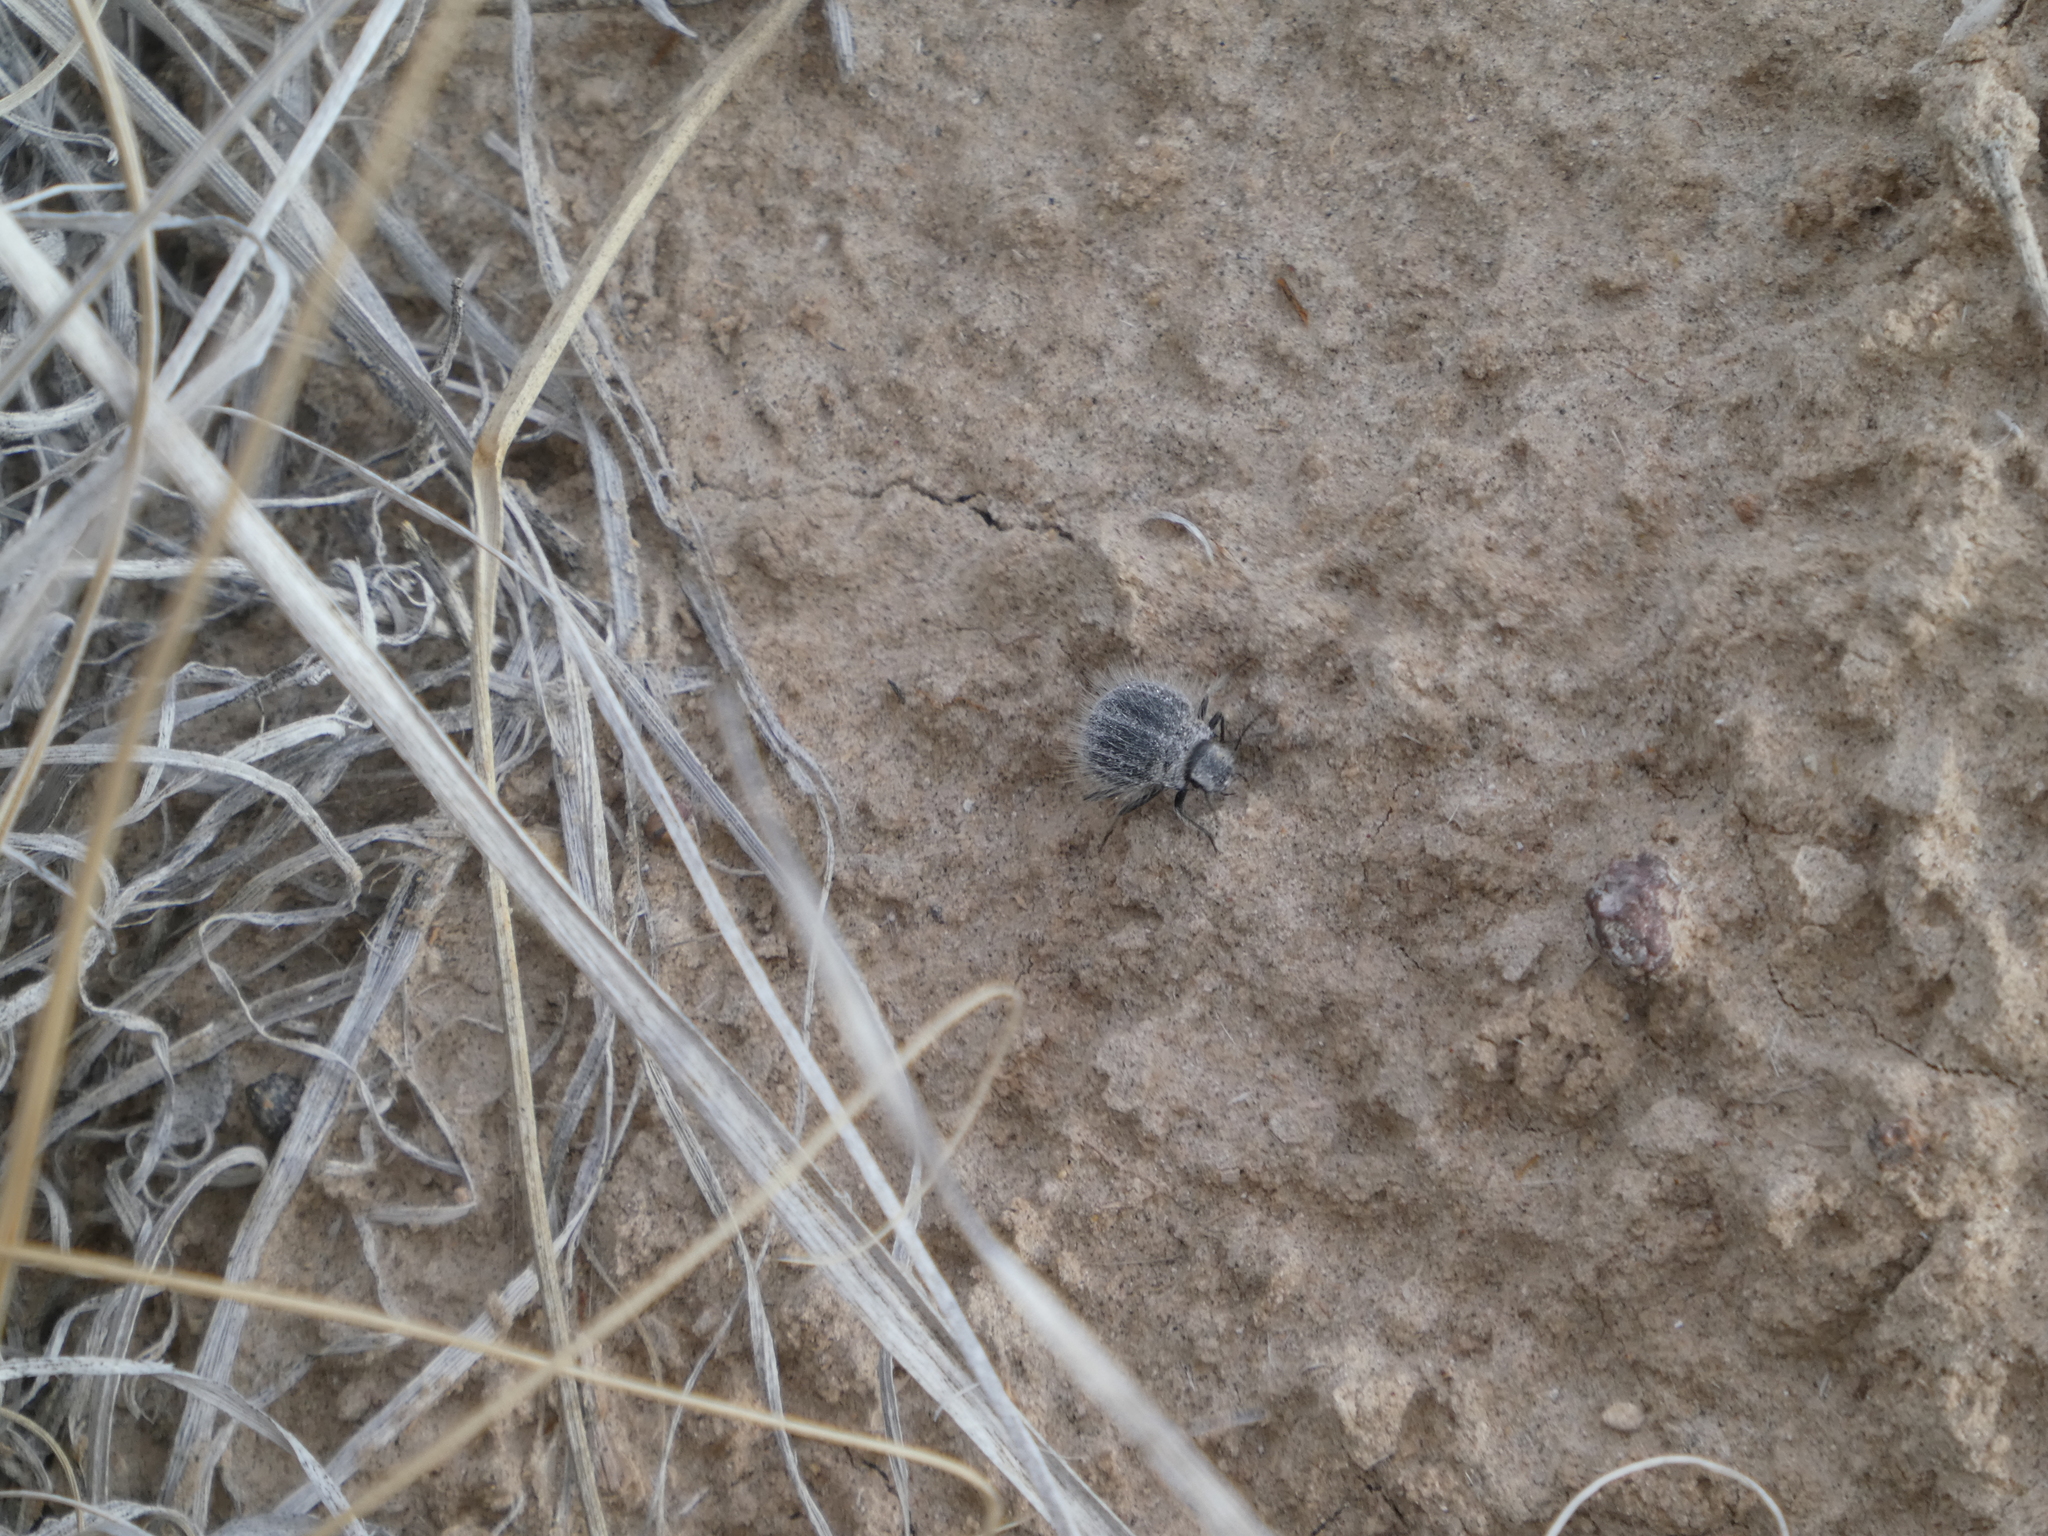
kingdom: Animalia
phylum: Arthropoda
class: Insecta
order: Coleoptera
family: Tenebrionidae
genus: Edrotes
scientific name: Edrotes ventricosus
